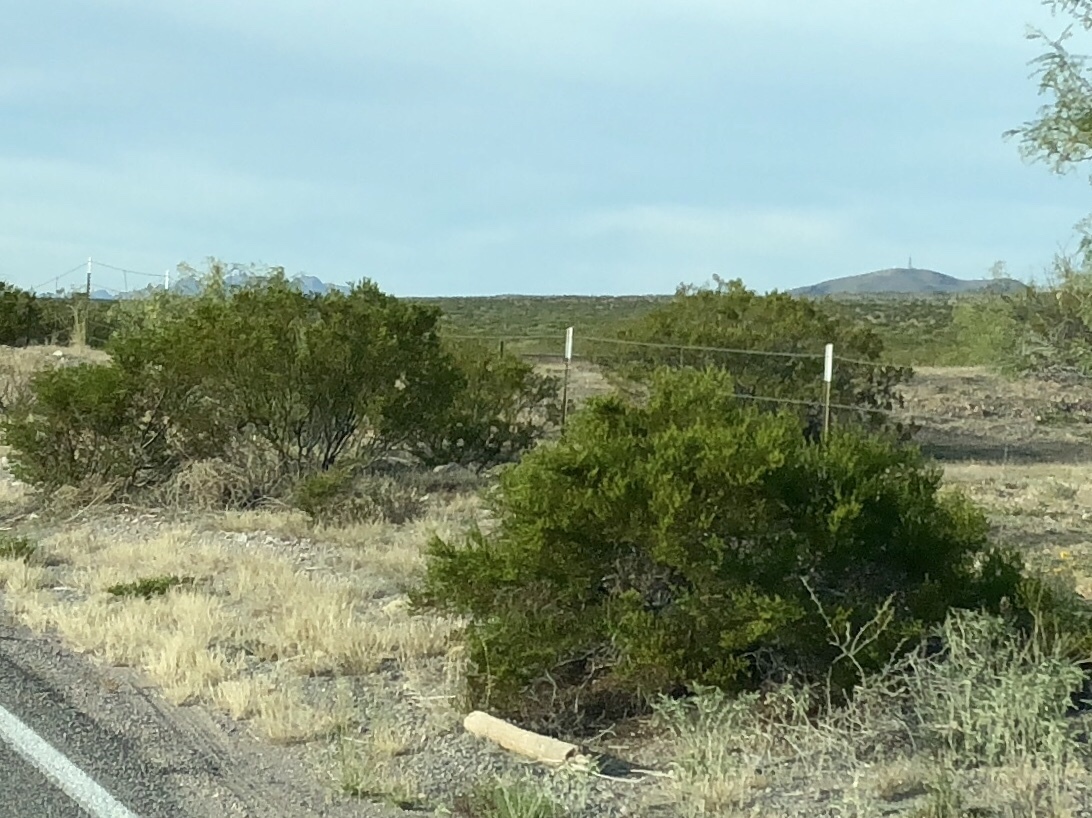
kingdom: Plantae
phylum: Tracheophyta
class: Magnoliopsida
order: Zygophyllales
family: Zygophyllaceae
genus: Larrea
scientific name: Larrea tridentata
